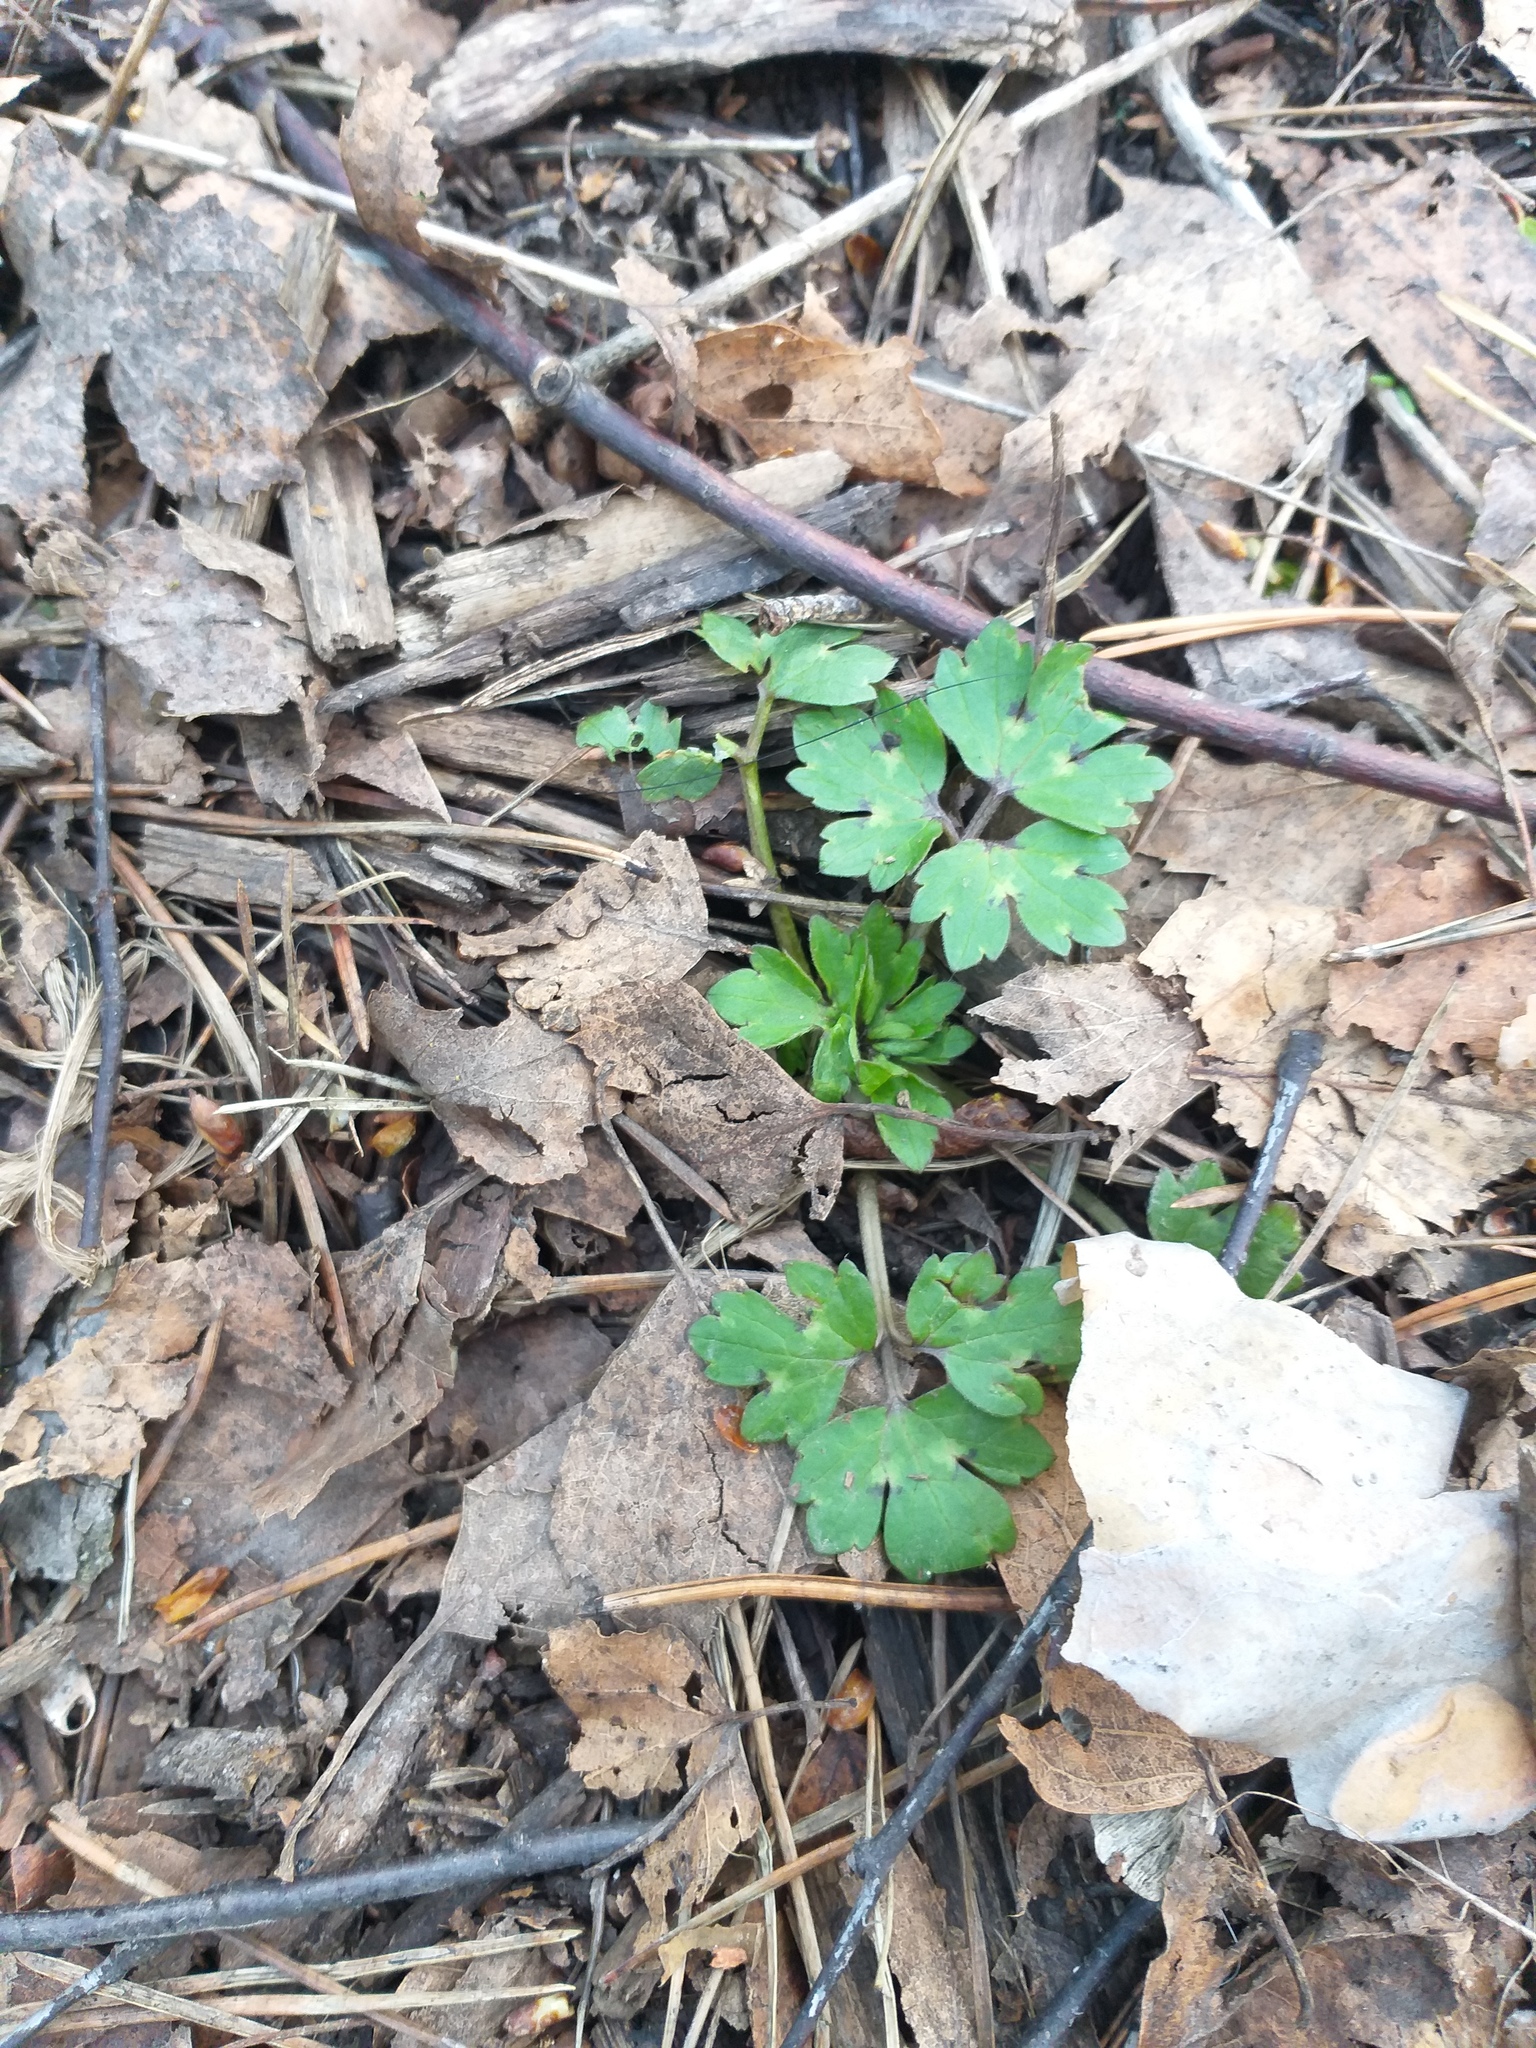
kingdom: Plantae
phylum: Tracheophyta
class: Magnoliopsida
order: Ranunculales
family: Ranunculaceae
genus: Ranunculus
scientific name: Ranunculus repens
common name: Creeping buttercup
